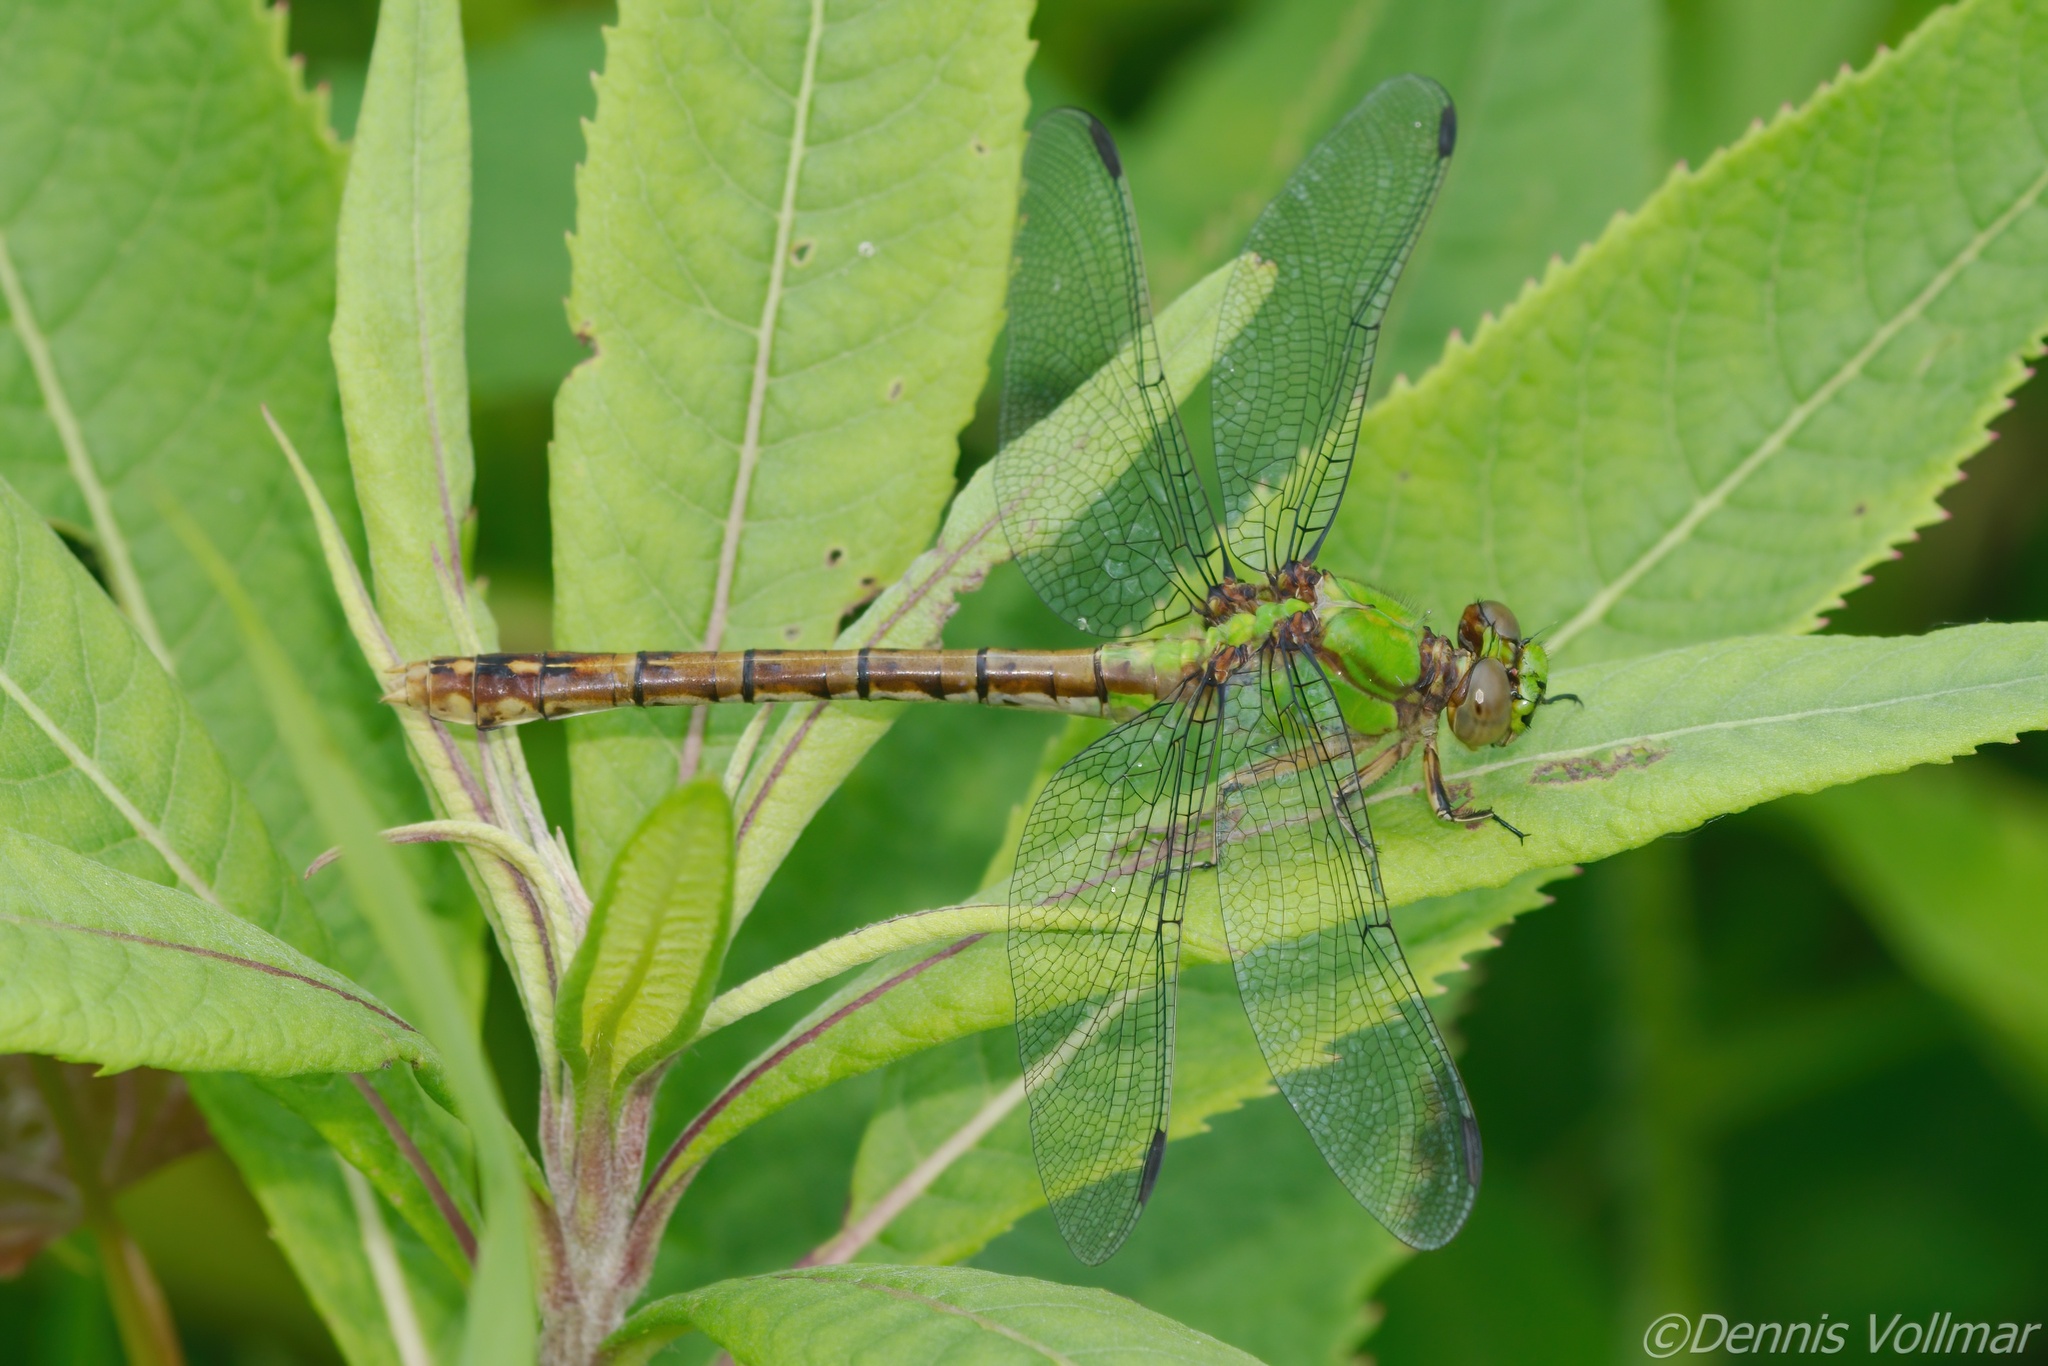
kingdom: Animalia
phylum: Arthropoda
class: Insecta
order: Odonata
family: Gomphidae
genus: Ophiogomphus
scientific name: Ophiogomphus rupinsulensis
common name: Rusty snaketail
